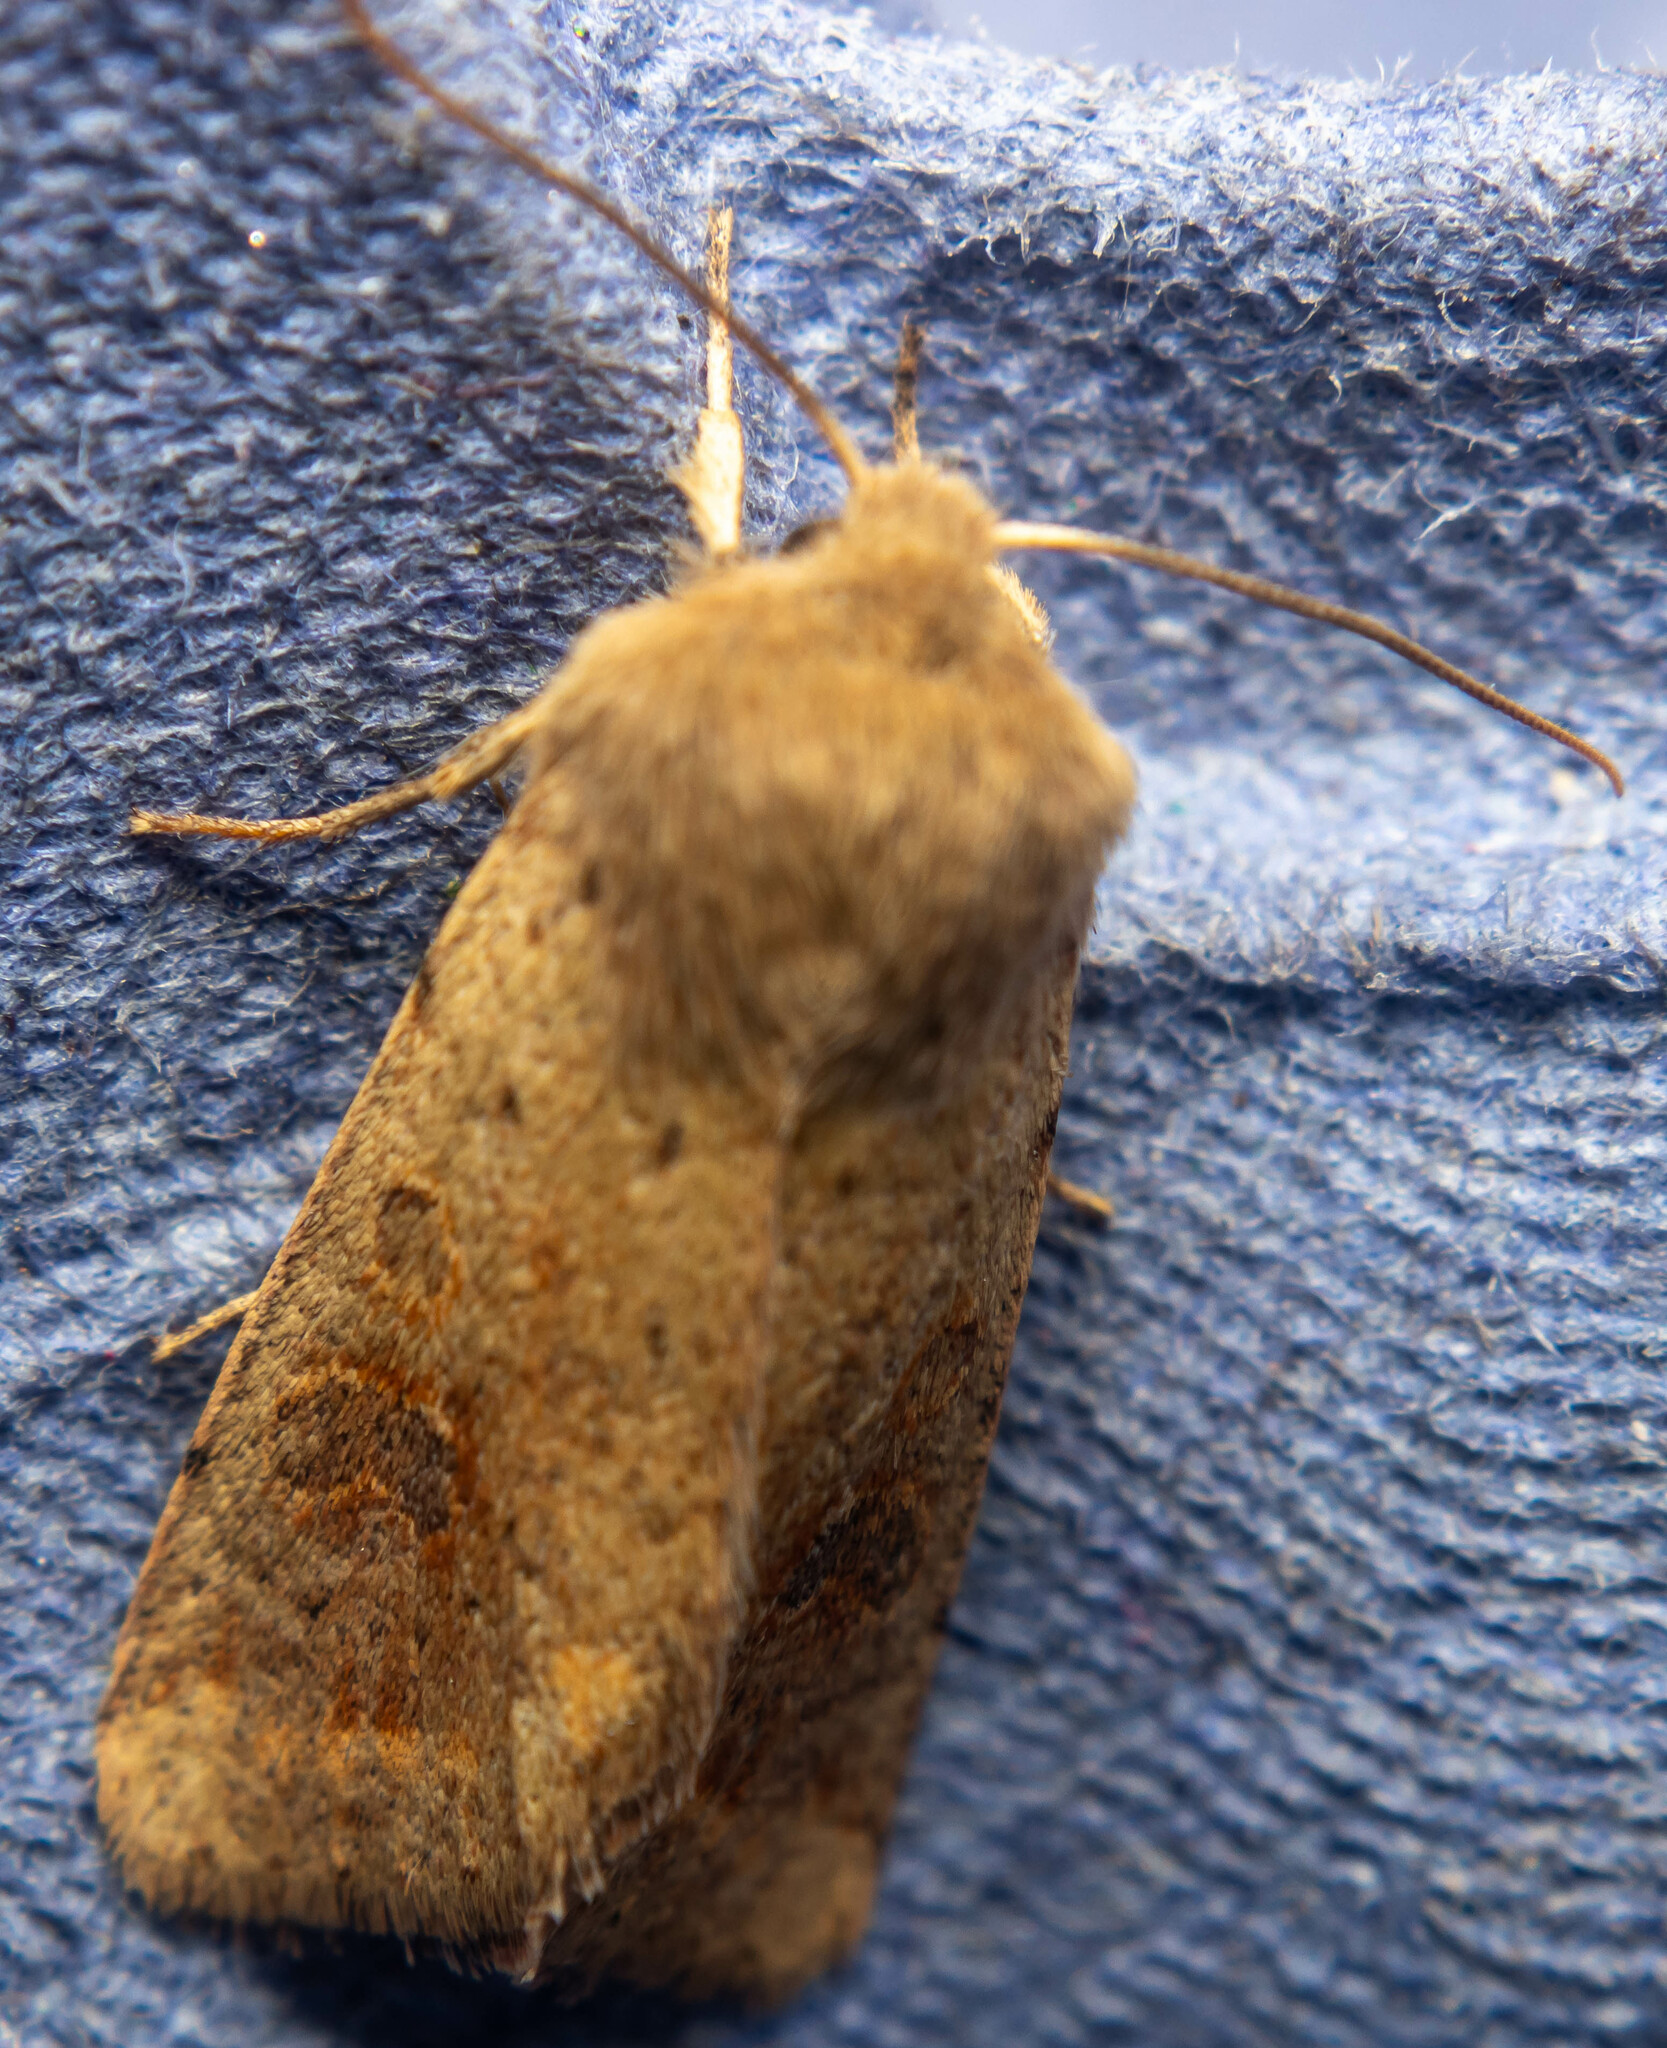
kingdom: Animalia
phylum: Arthropoda
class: Insecta
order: Lepidoptera
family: Noctuidae
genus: Orthosia
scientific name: Orthosia cruda
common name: Small quaker
